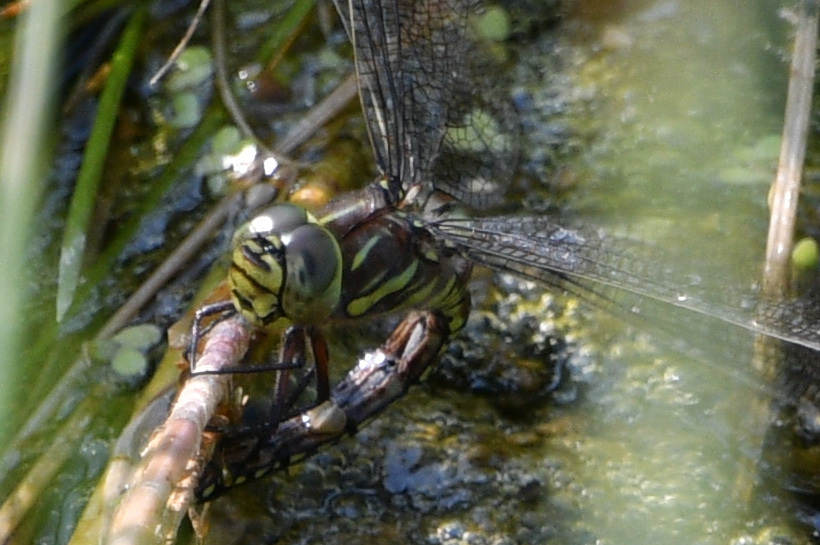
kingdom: Animalia
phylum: Arthropoda
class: Insecta
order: Odonata
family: Aeshnidae
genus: Aeshna
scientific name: Aeshna juncea
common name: Moorland hawker
